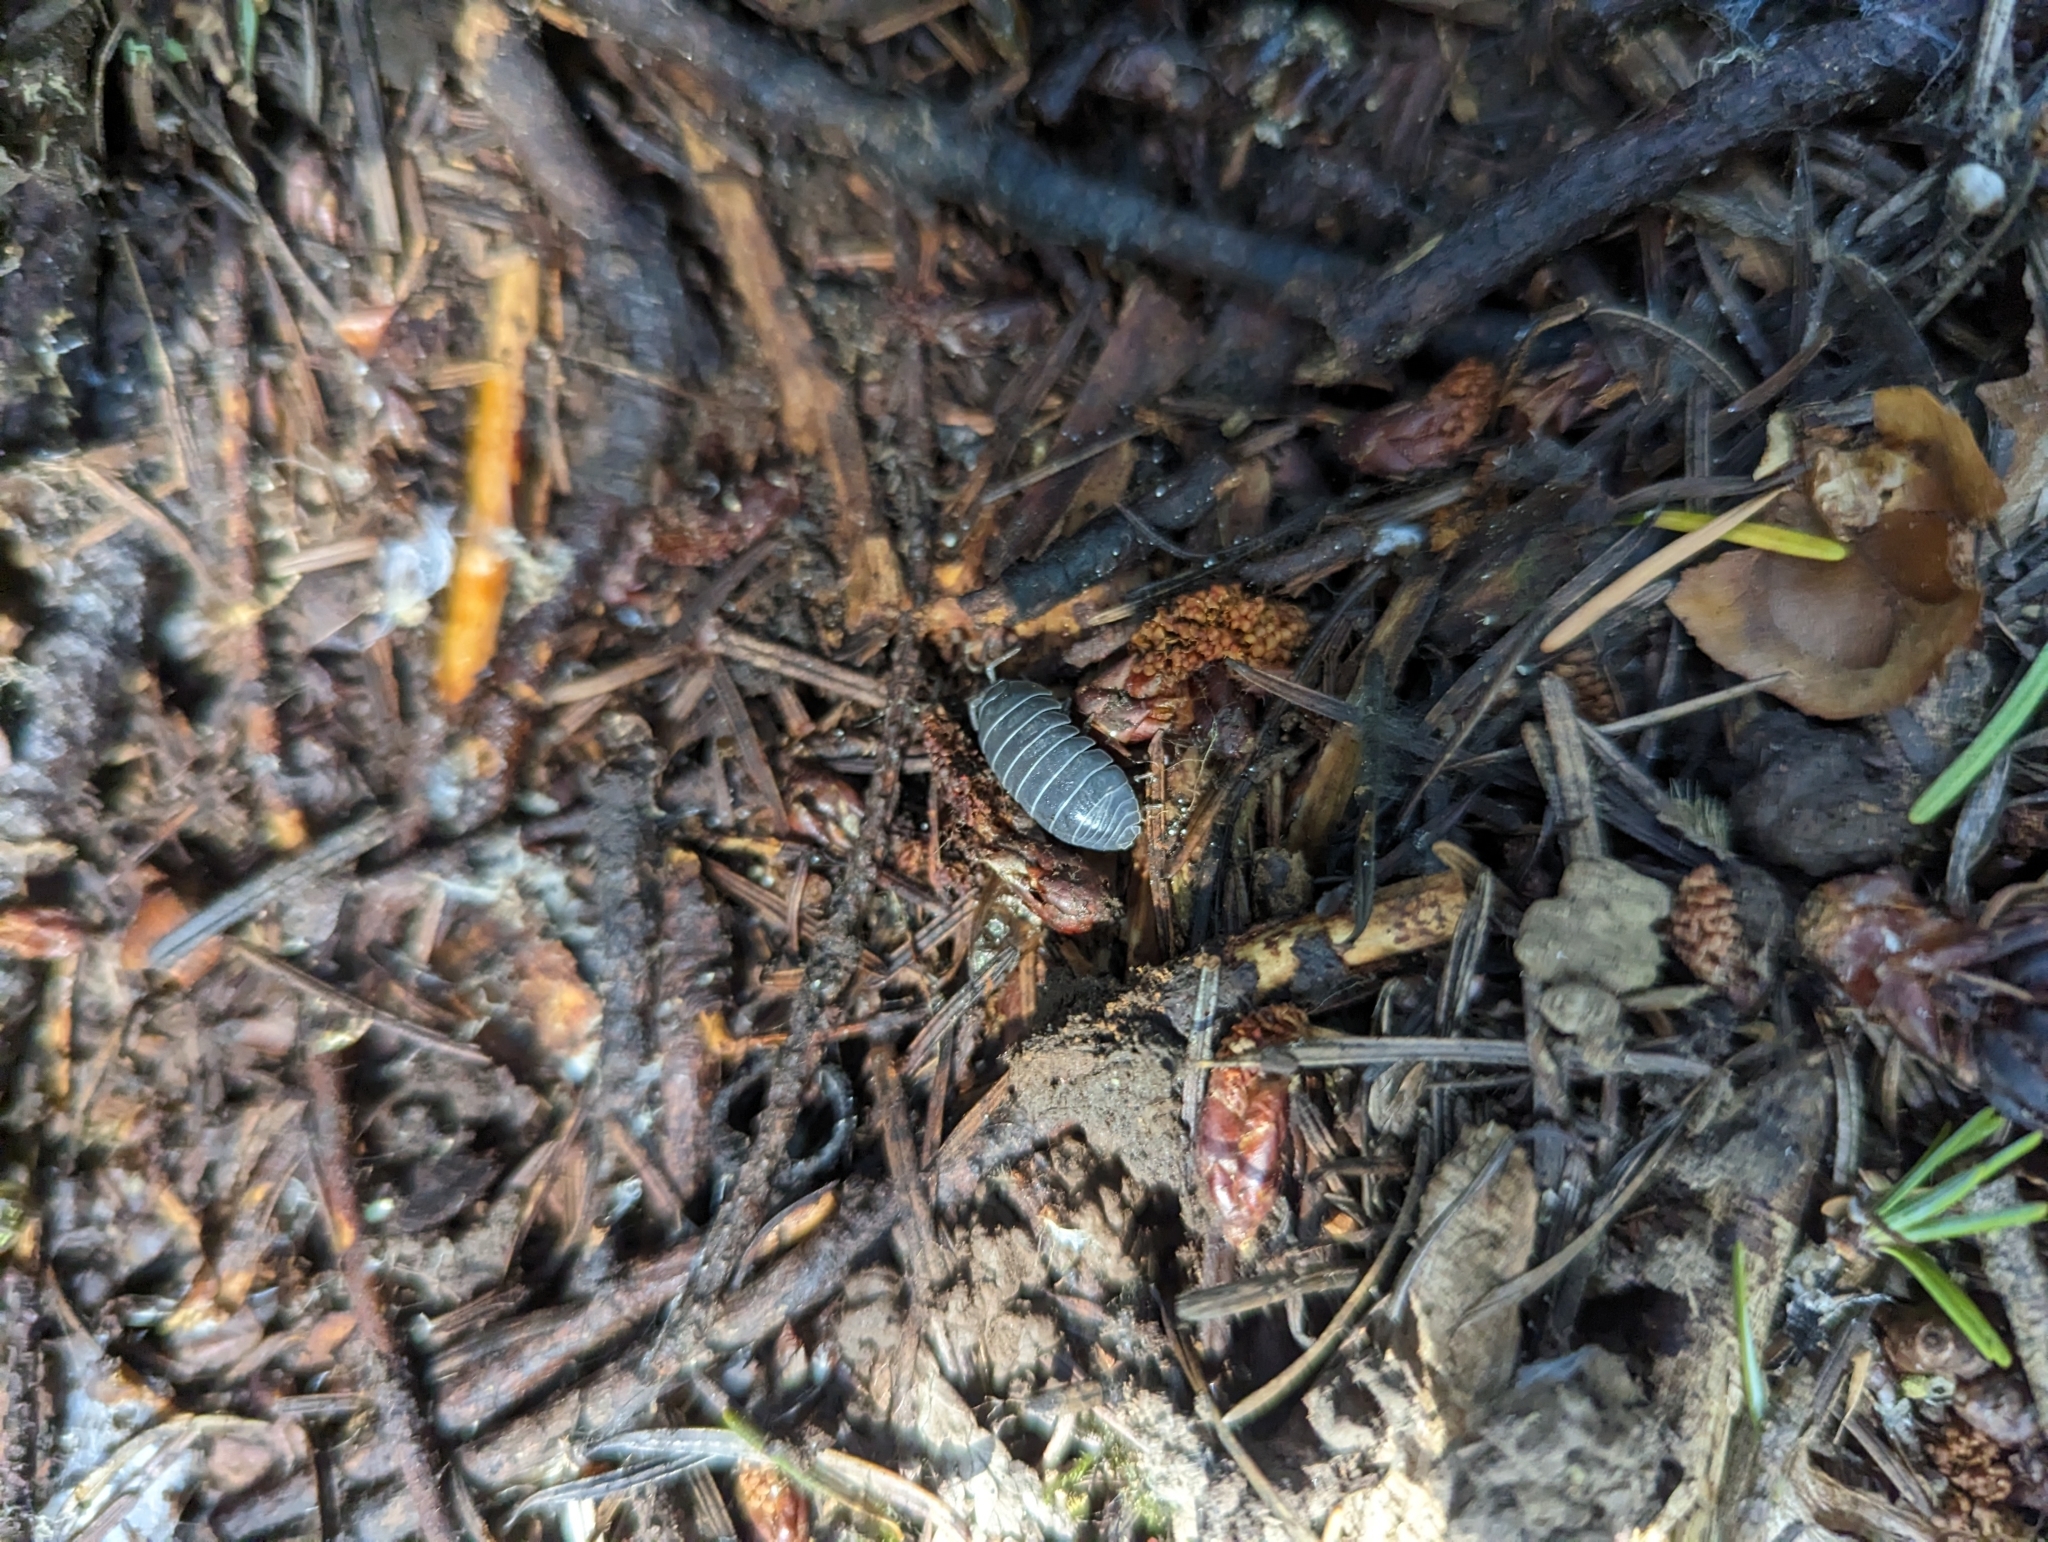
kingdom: Animalia
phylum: Arthropoda
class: Malacostraca
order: Isopoda
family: Armadillidiidae
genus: Armadillidium
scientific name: Armadillidium vulgare
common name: Common pill woodlouse
